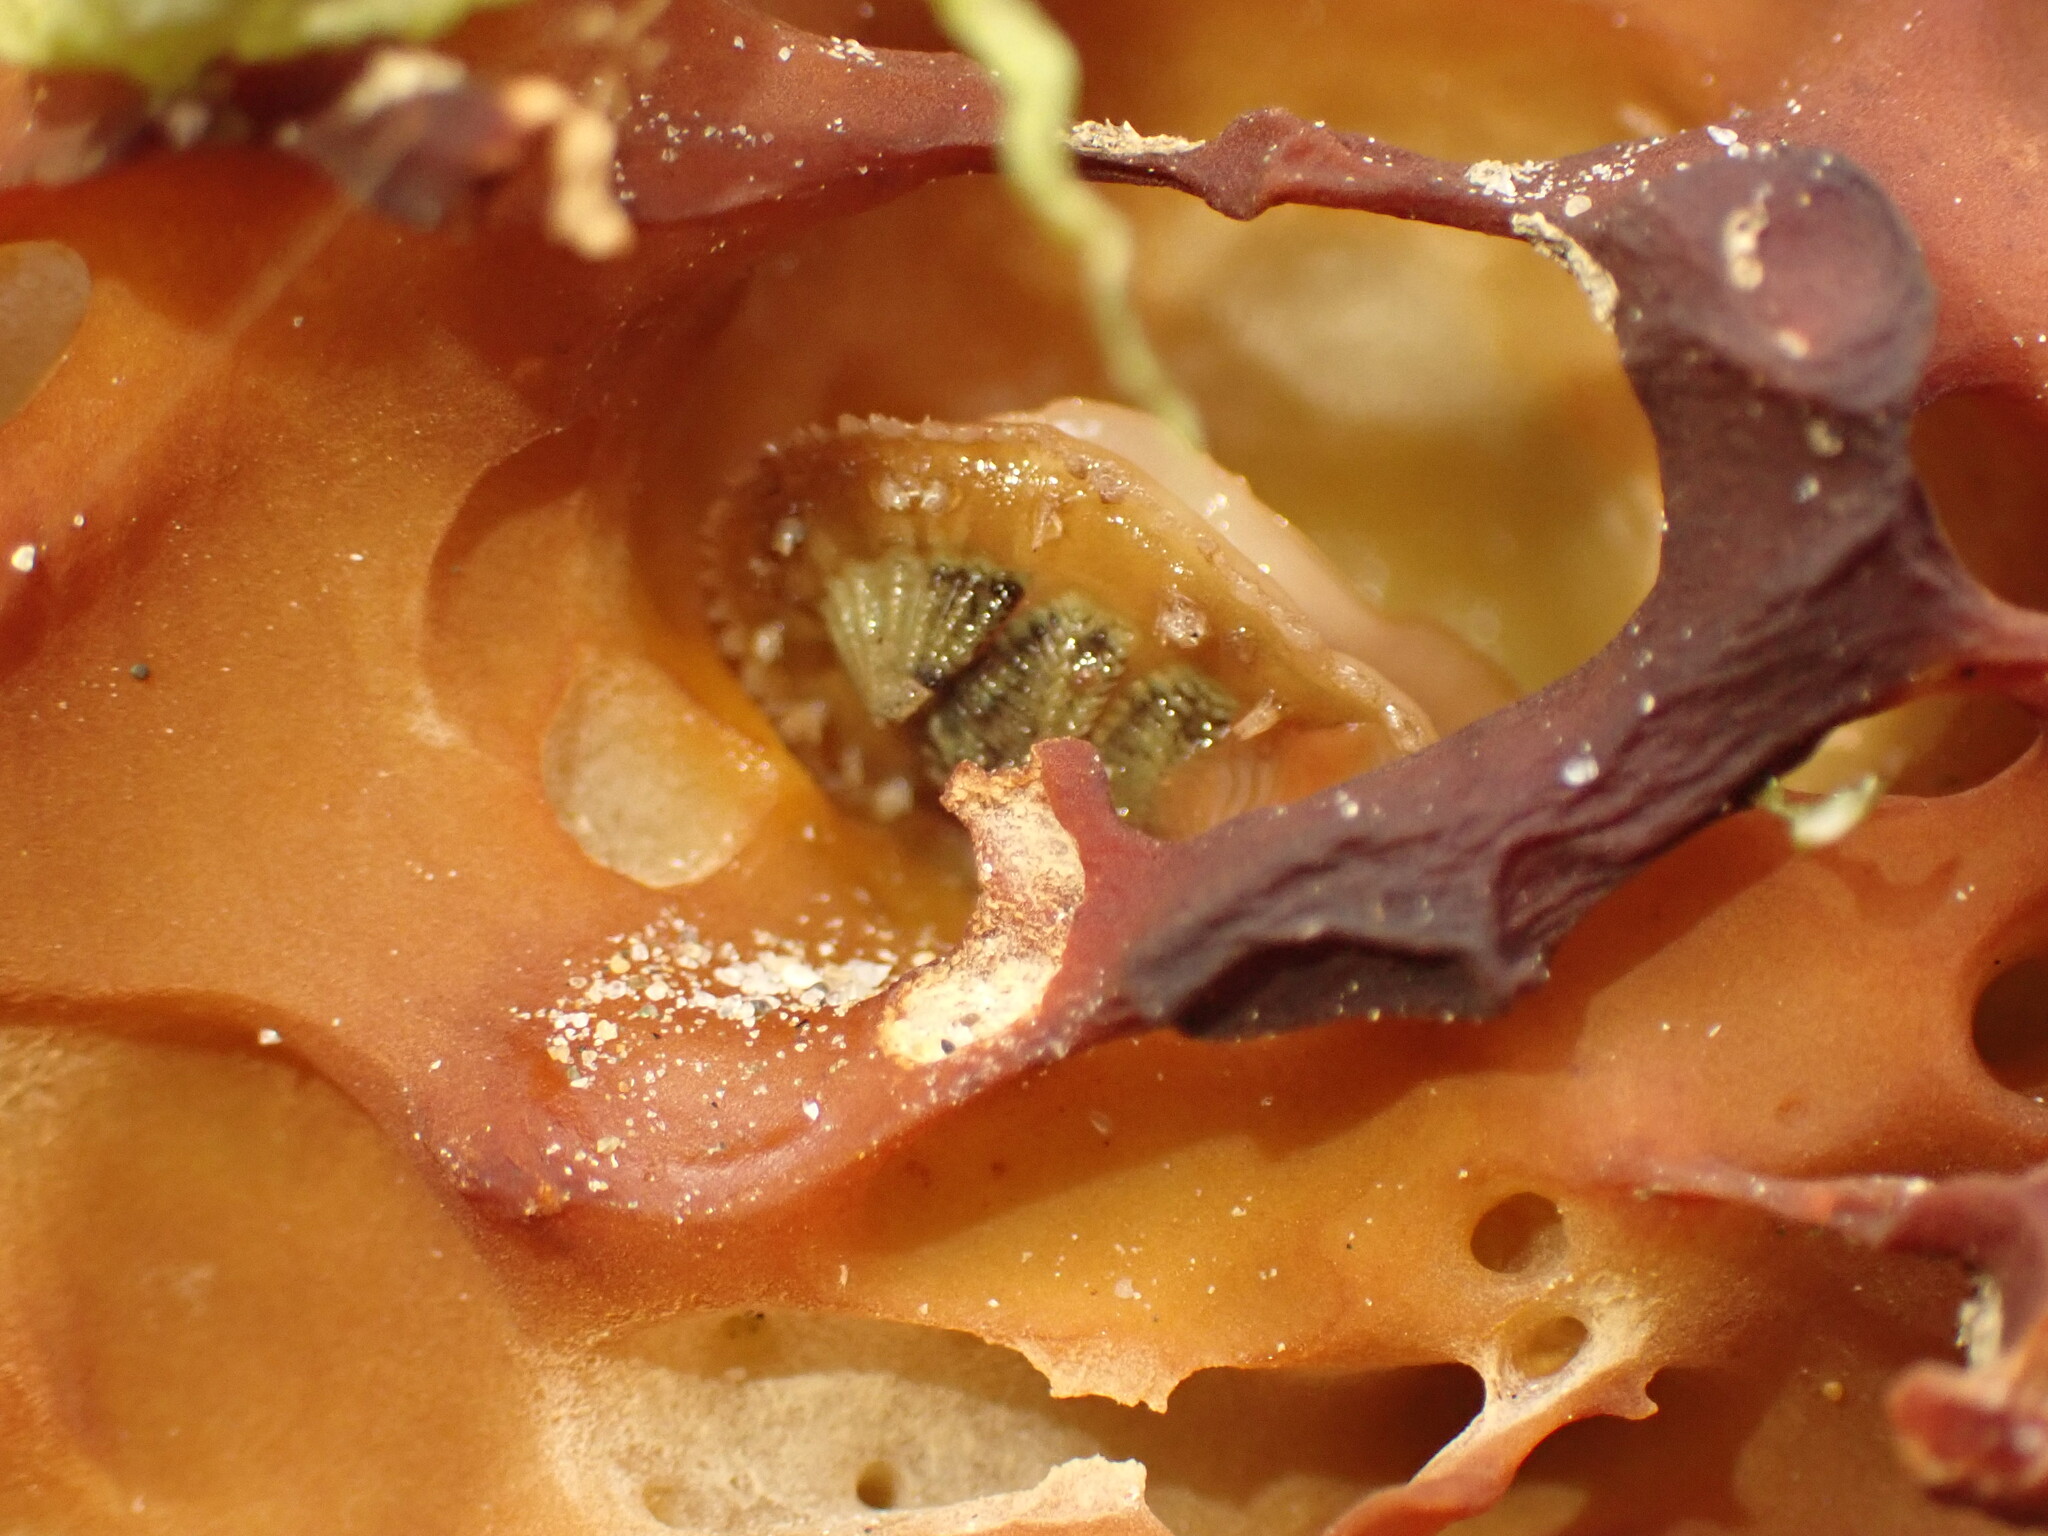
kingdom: Animalia
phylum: Mollusca
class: Polyplacophora
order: Chitonida
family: Mopaliidae
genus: Plaxiphora
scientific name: Plaxiphora egregia
